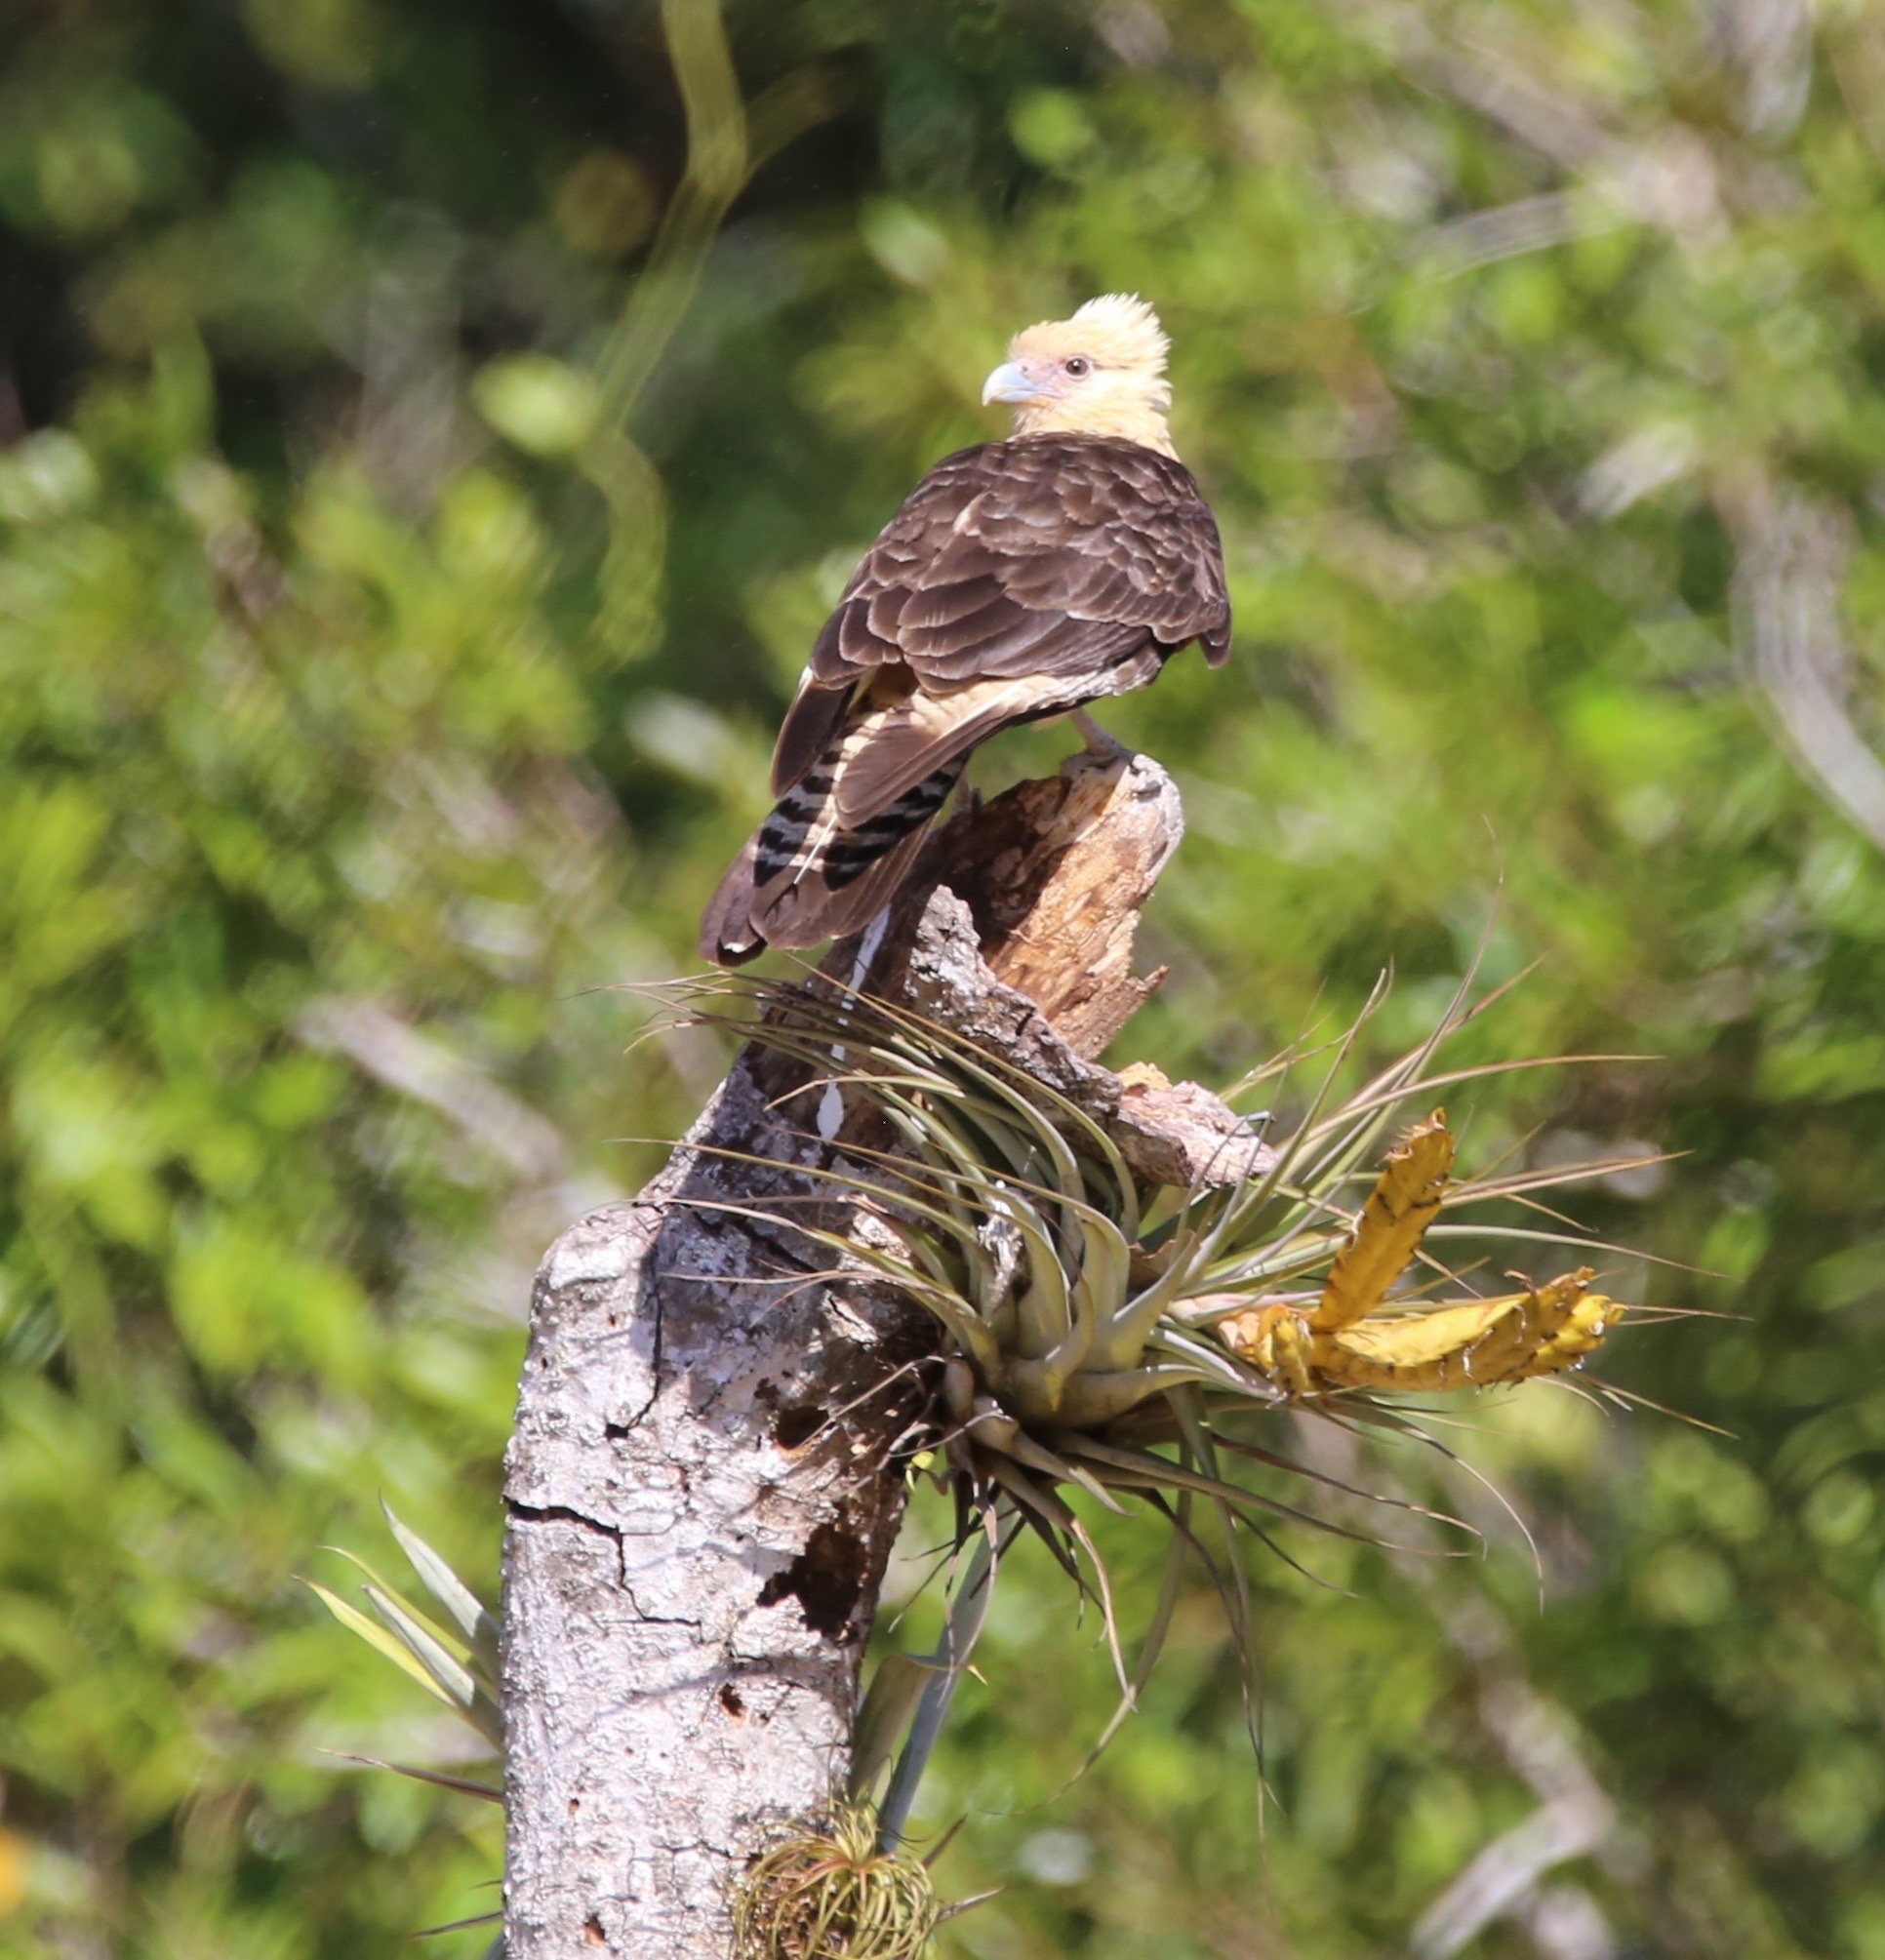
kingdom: Animalia
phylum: Chordata
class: Aves
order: Falconiformes
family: Falconidae
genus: Daptrius
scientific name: Daptrius
